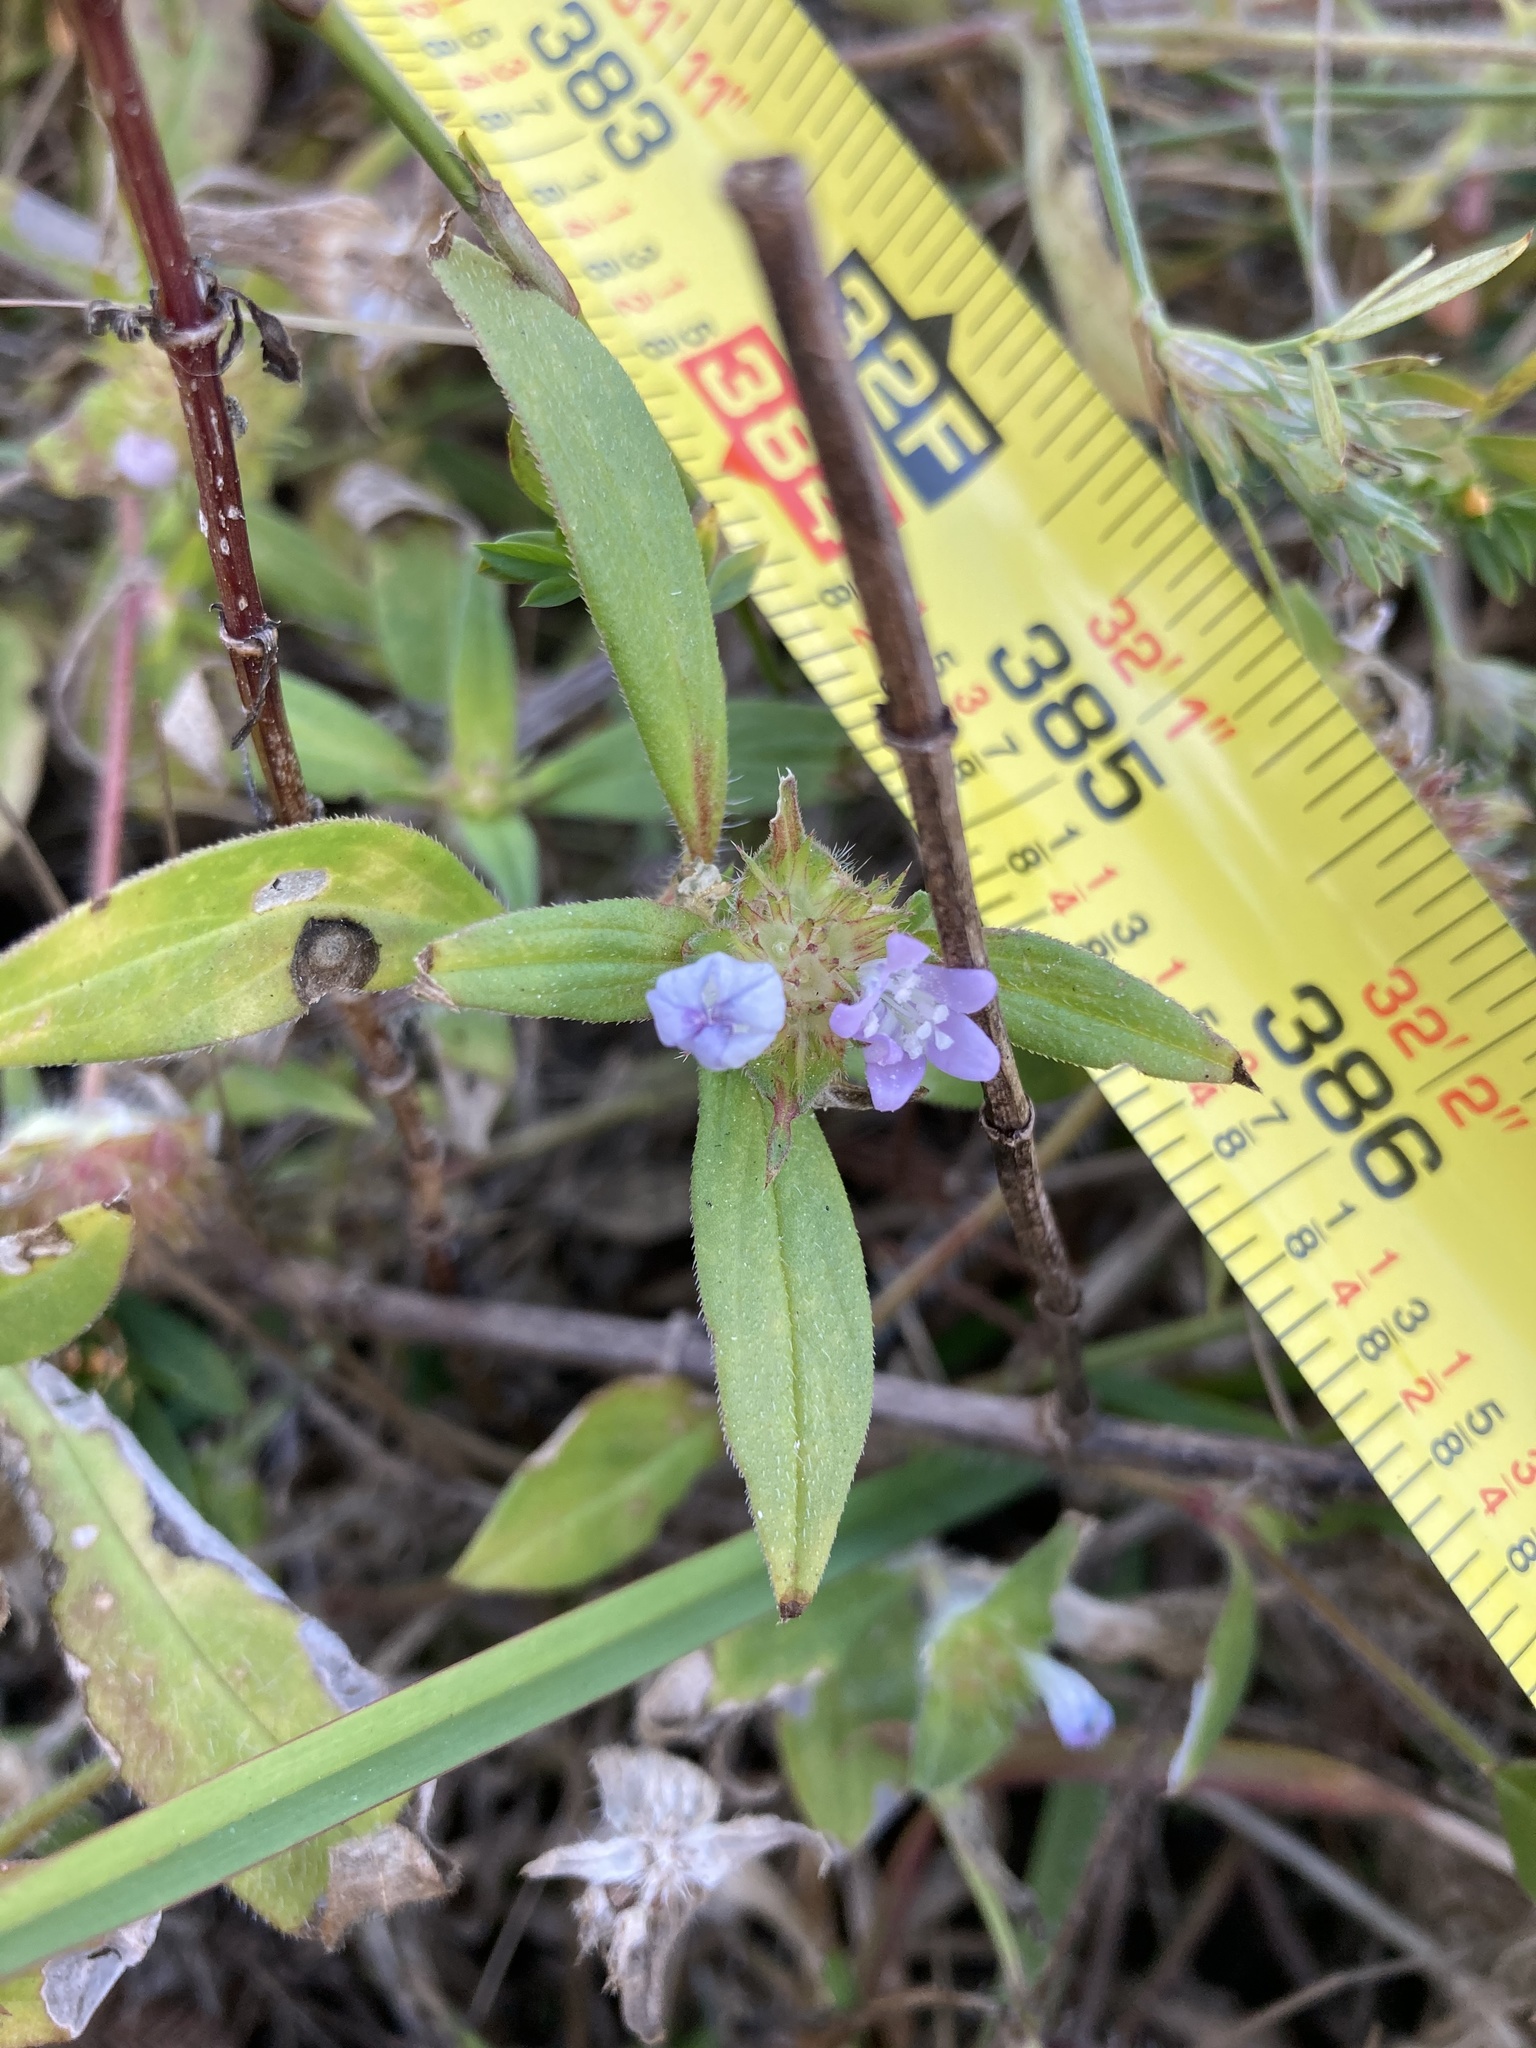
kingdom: Plantae
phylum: Tracheophyta
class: Magnoliopsida
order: Gentianales
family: Rubiaceae
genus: Richardia
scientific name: Richardia grandiflora
